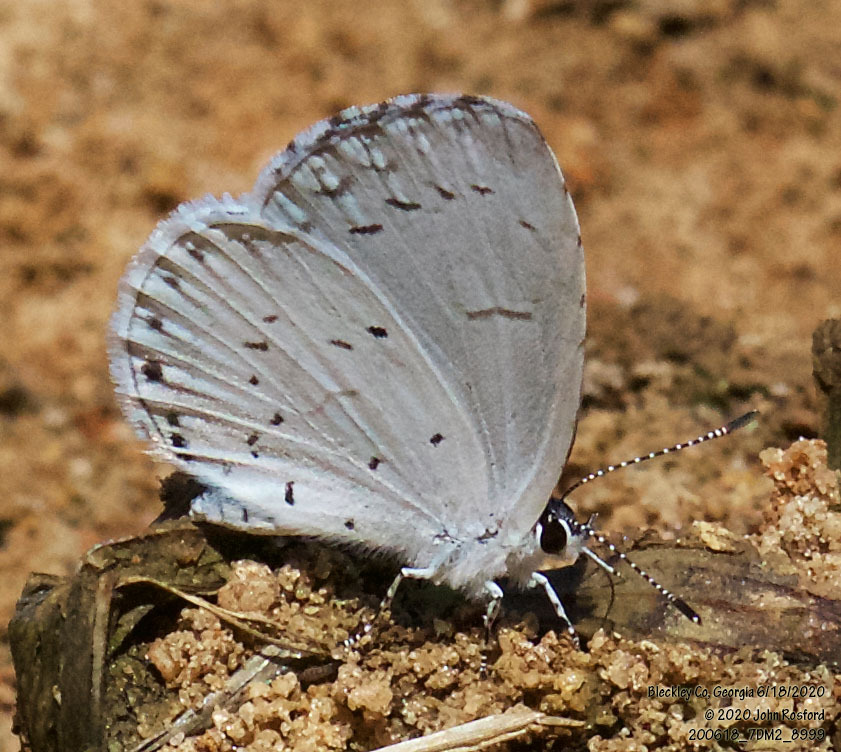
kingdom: Animalia
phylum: Arthropoda
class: Insecta
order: Lepidoptera
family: Lycaenidae
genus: Cyaniris
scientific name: Cyaniris neglecta
